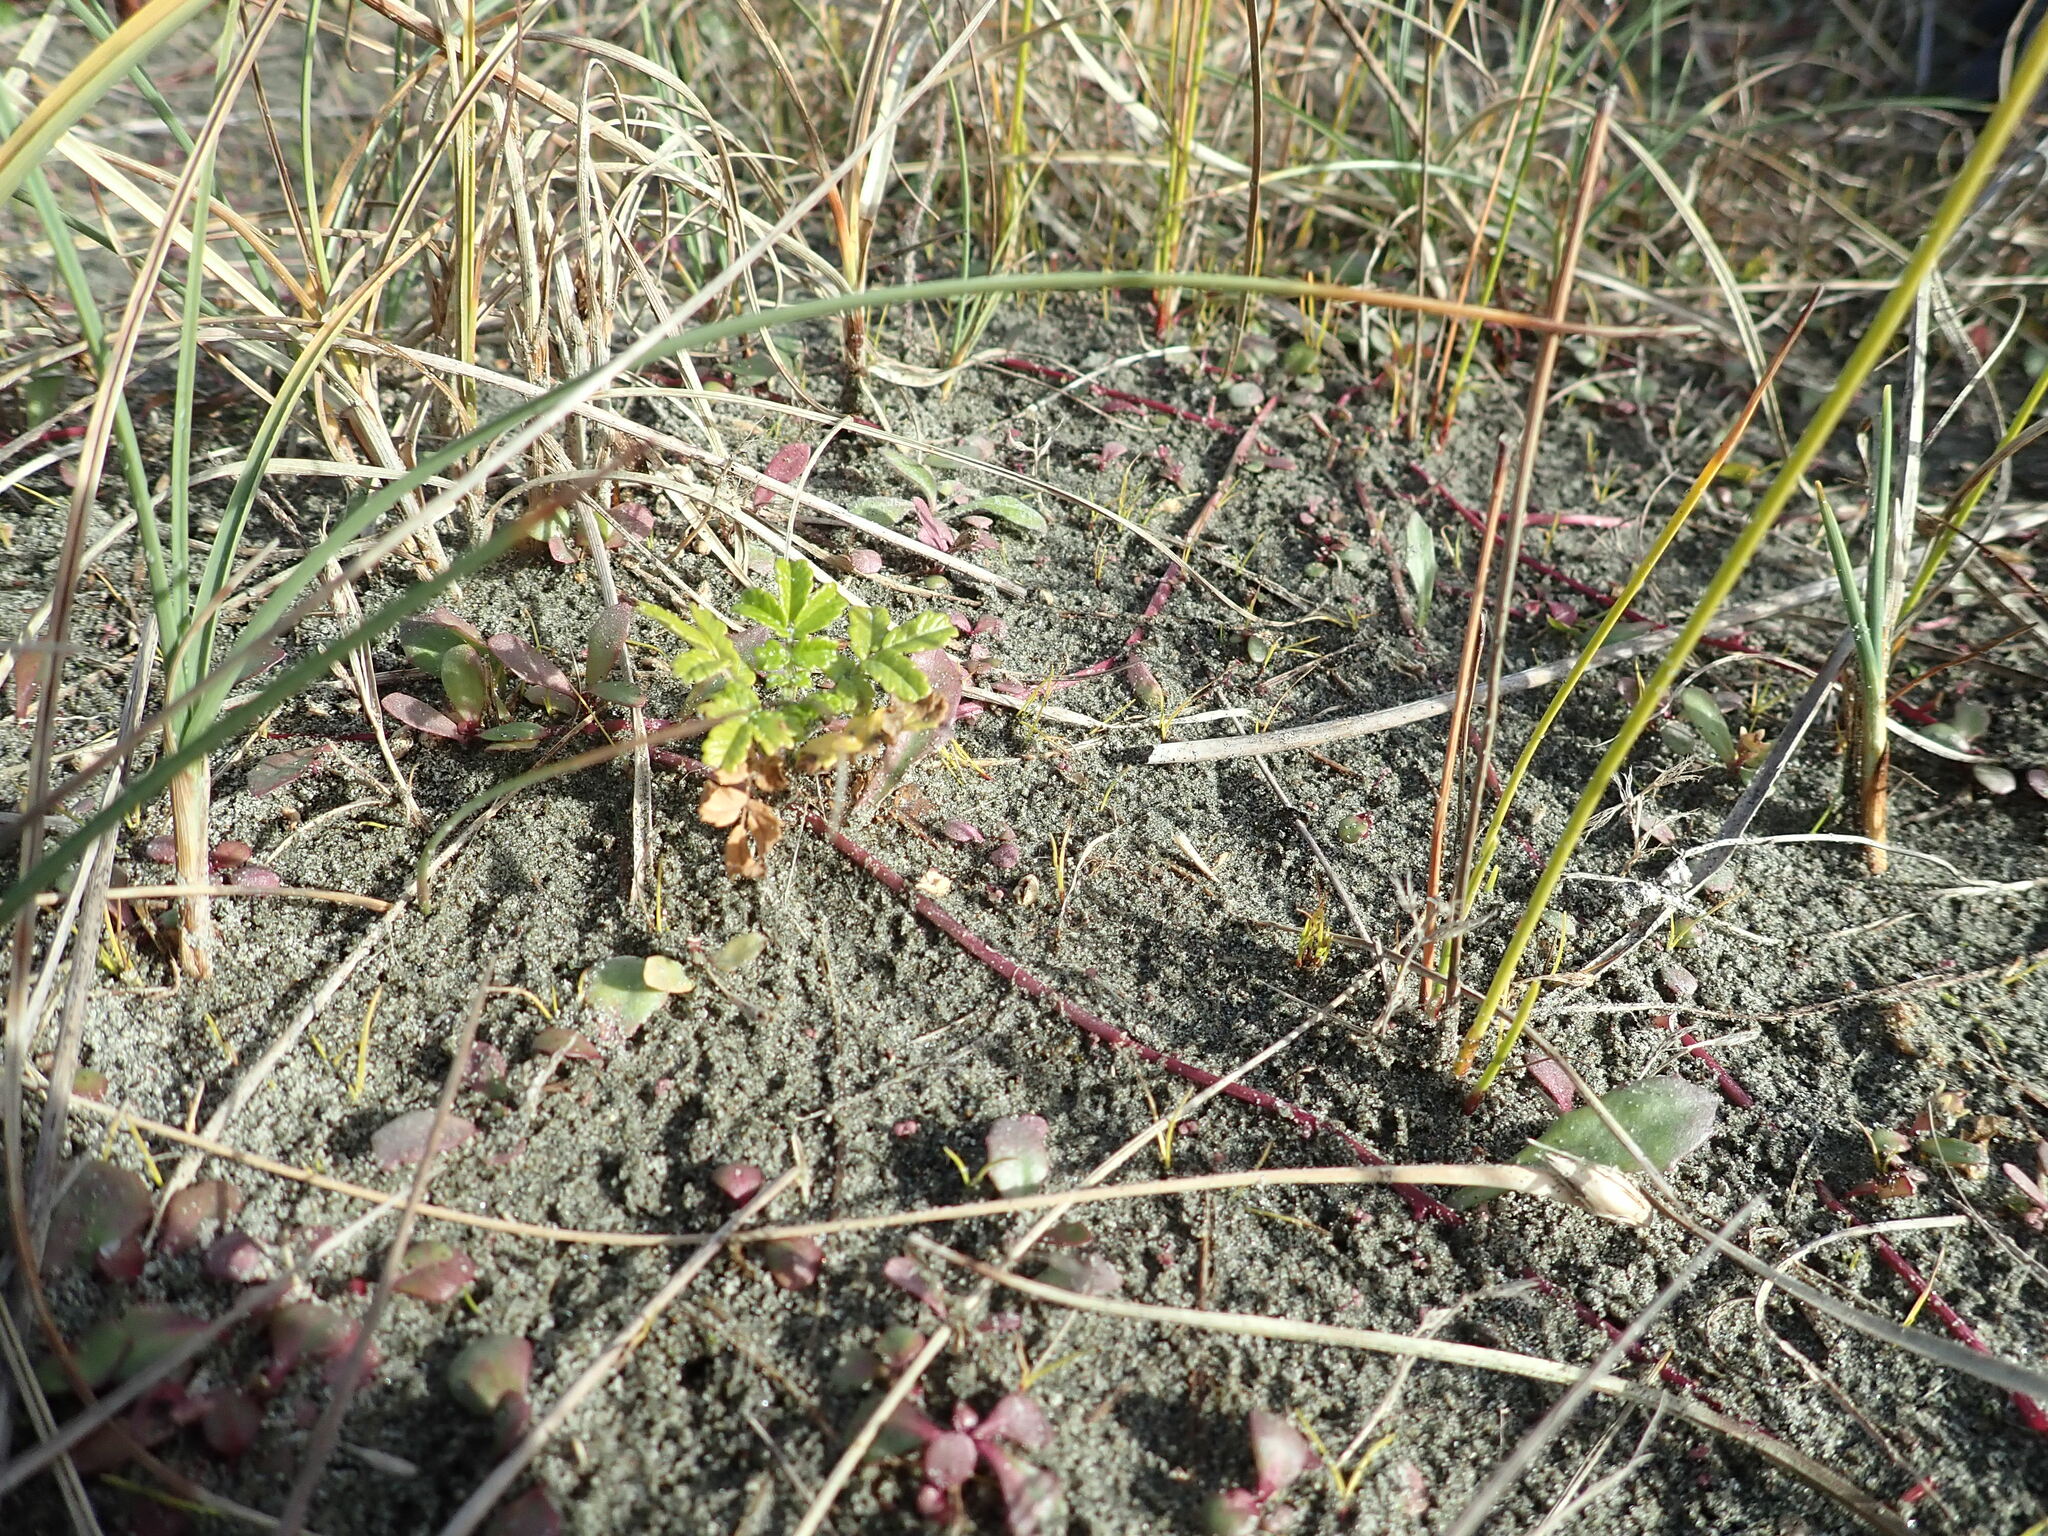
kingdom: Plantae
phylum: Tracheophyta
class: Magnoliopsida
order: Rosales
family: Rosaceae
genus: Acaena
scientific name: Acaena novae-zelandiae
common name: Pirri-pirri-bur
